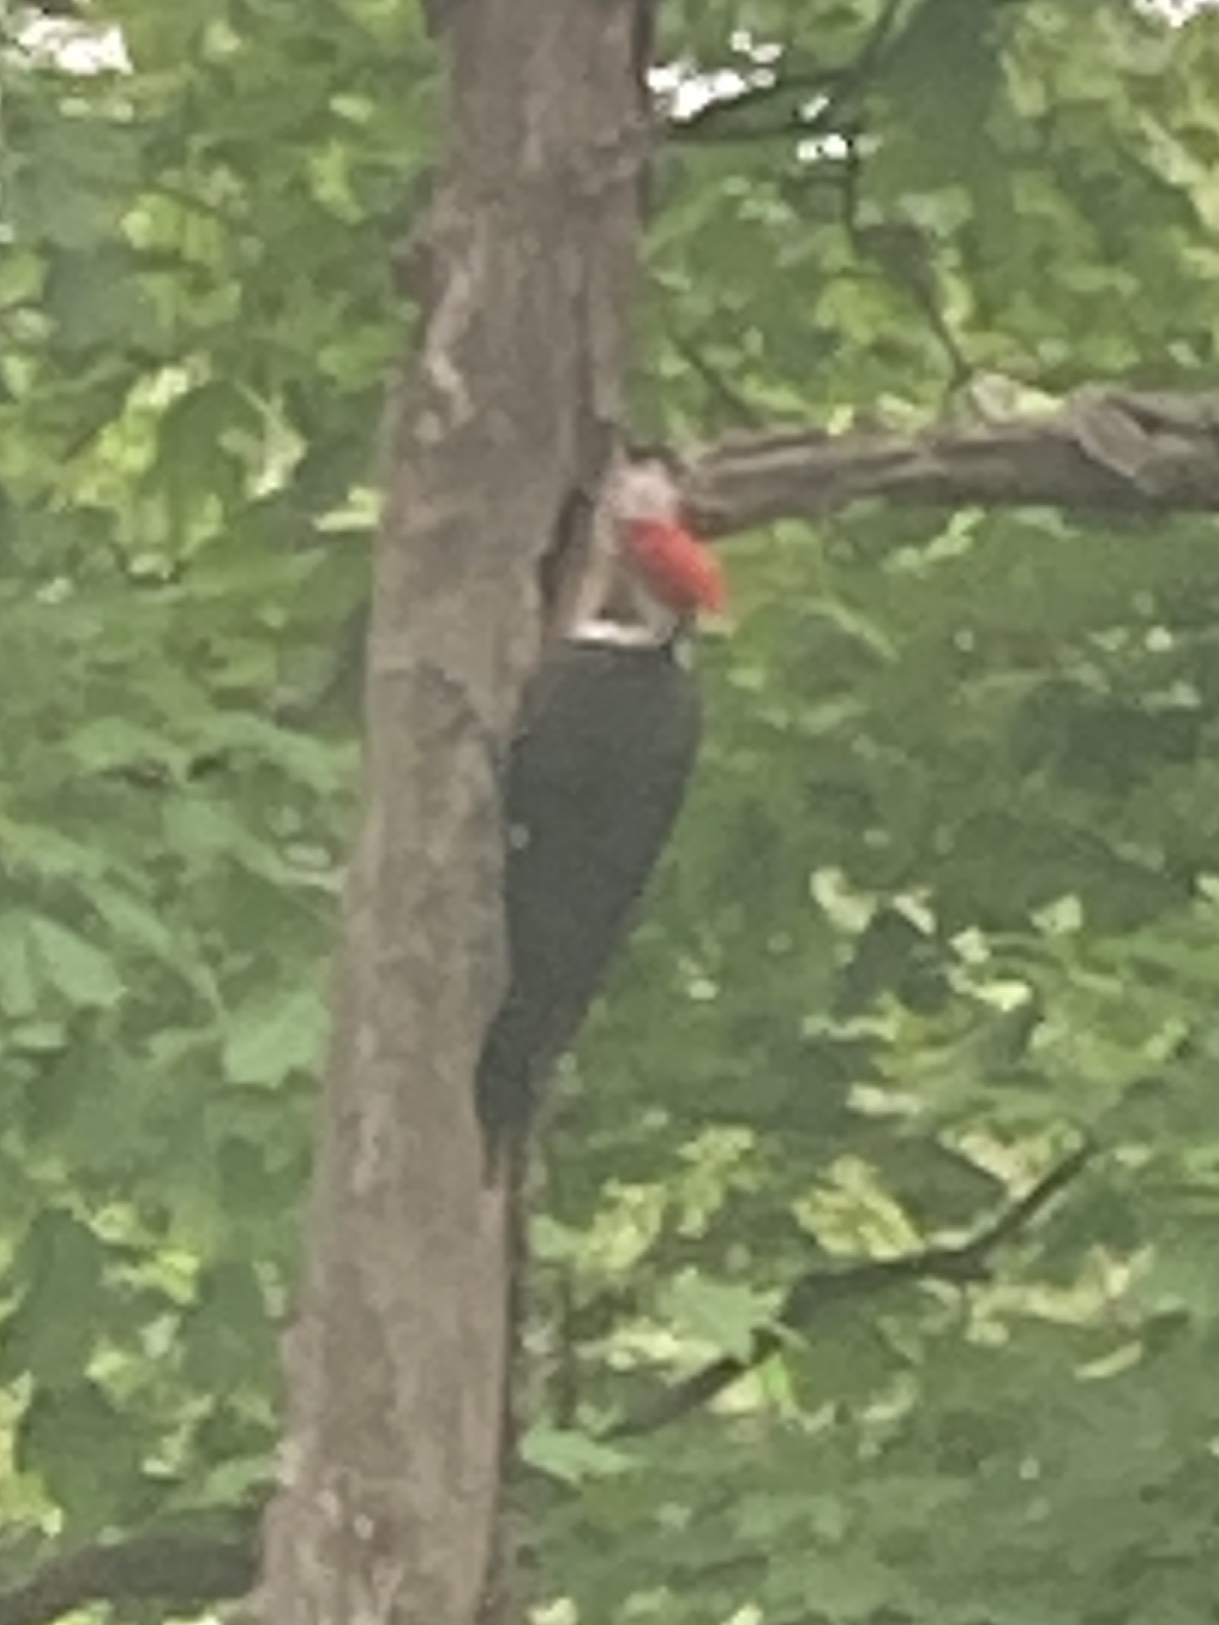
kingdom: Animalia
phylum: Chordata
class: Aves
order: Piciformes
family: Picidae
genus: Dryocopus
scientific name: Dryocopus pileatus
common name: Pileated woodpecker
